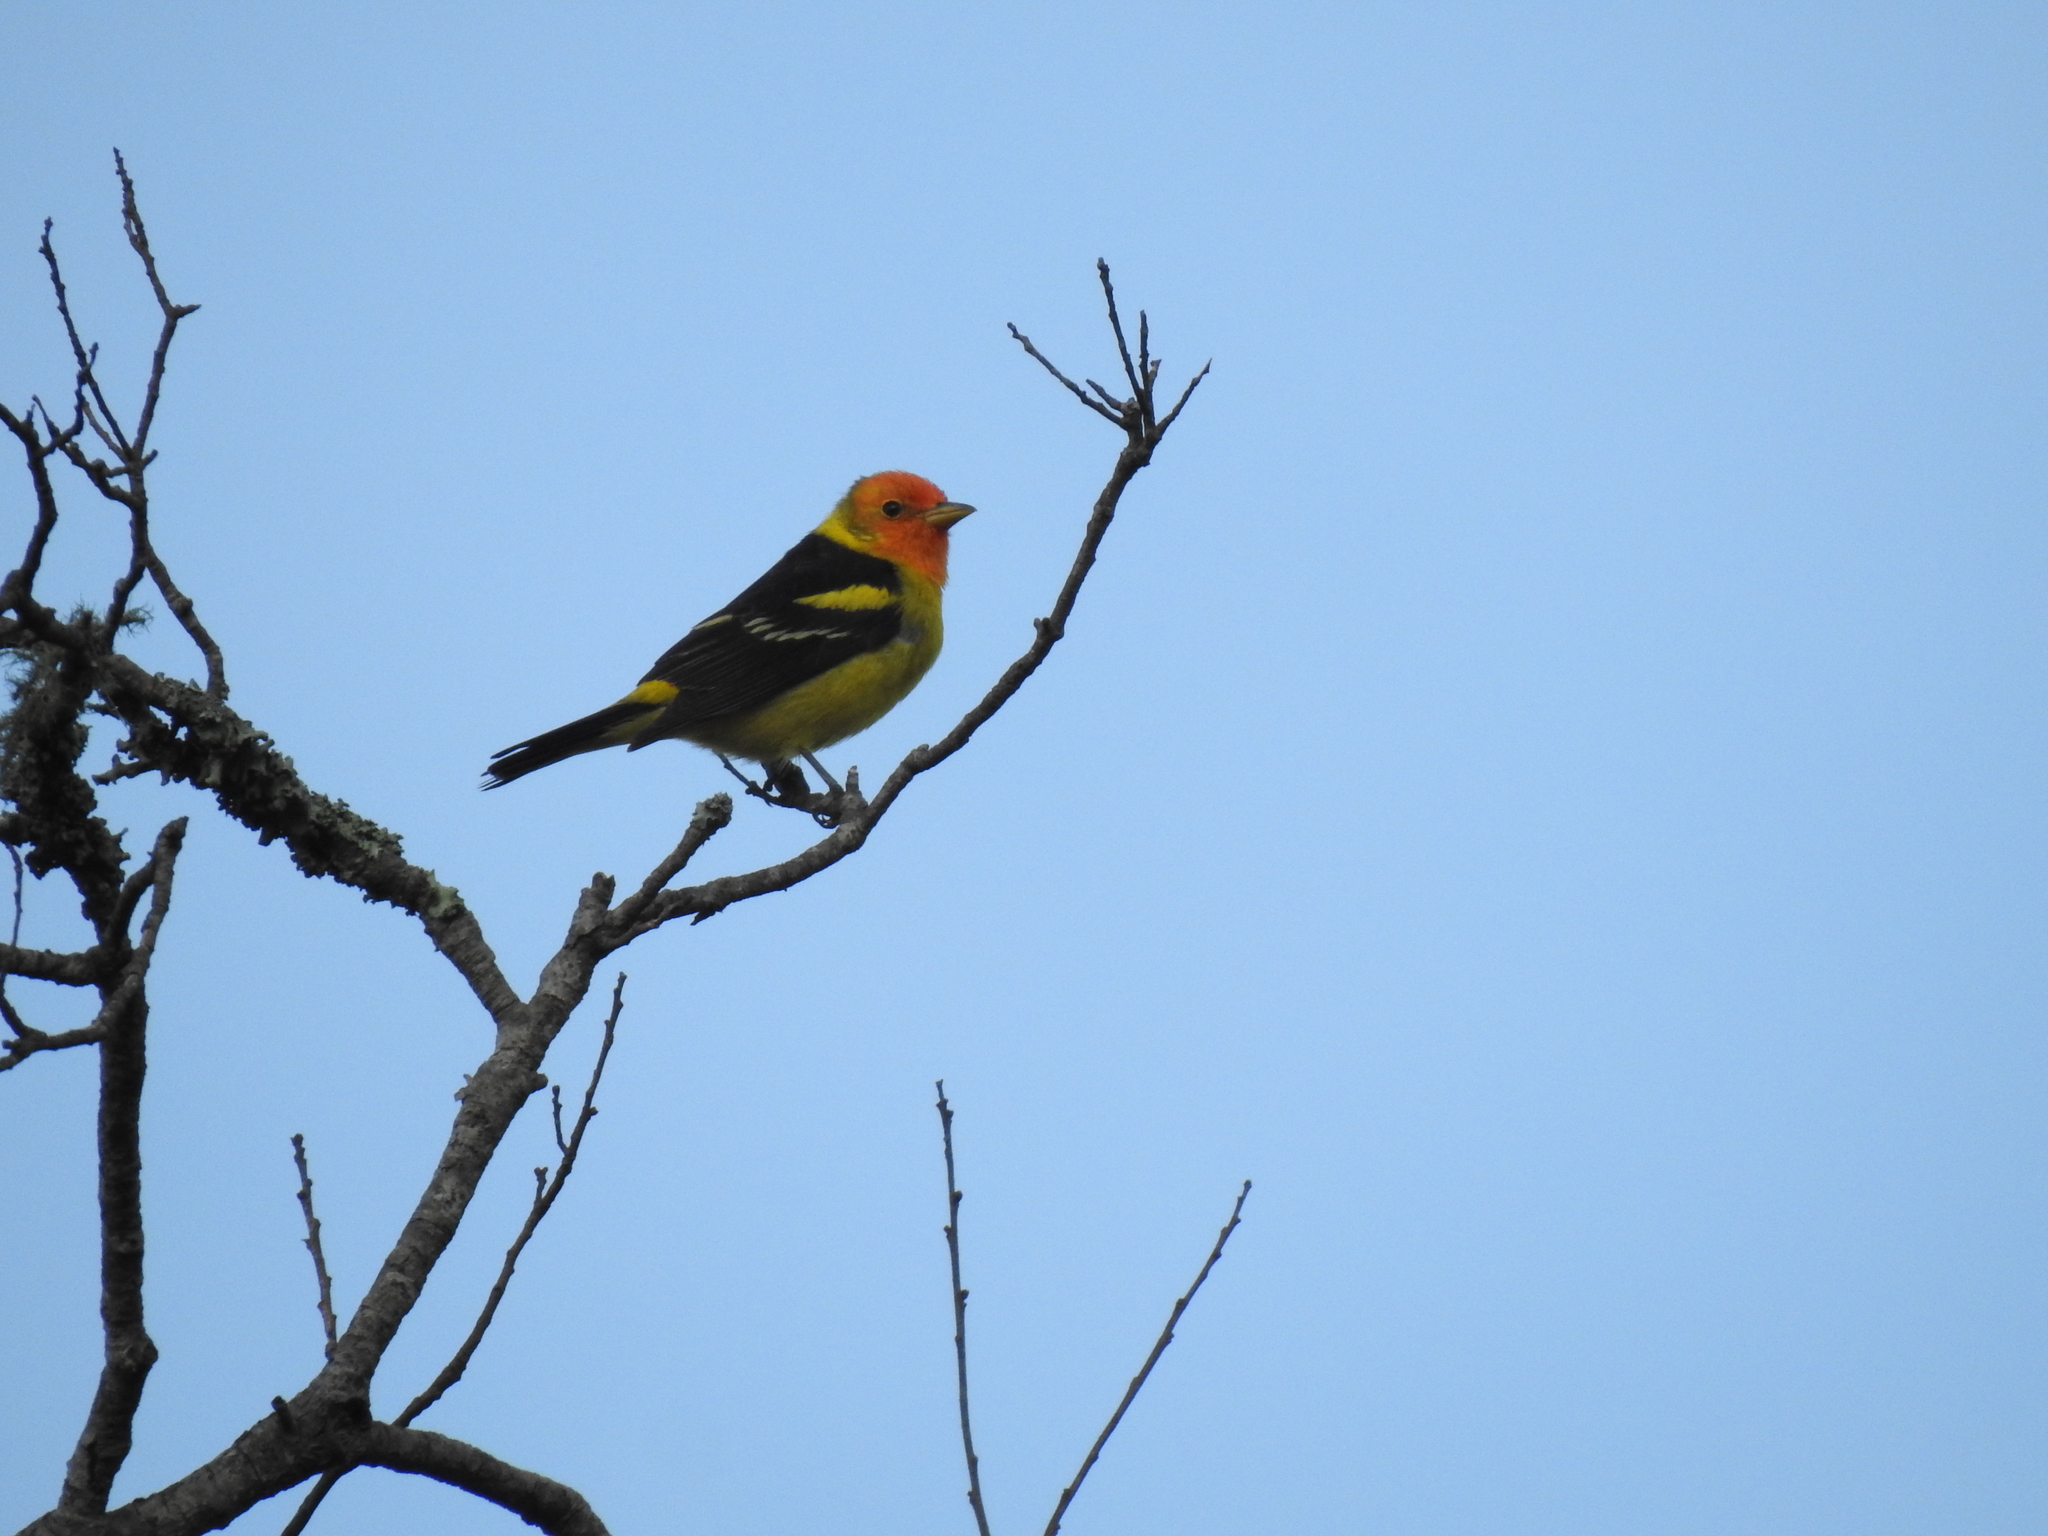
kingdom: Animalia
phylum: Chordata
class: Aves
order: Passeriformes
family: Cardinalidae
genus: Piranga
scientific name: Piranga ludoviciana
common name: Western tanager
